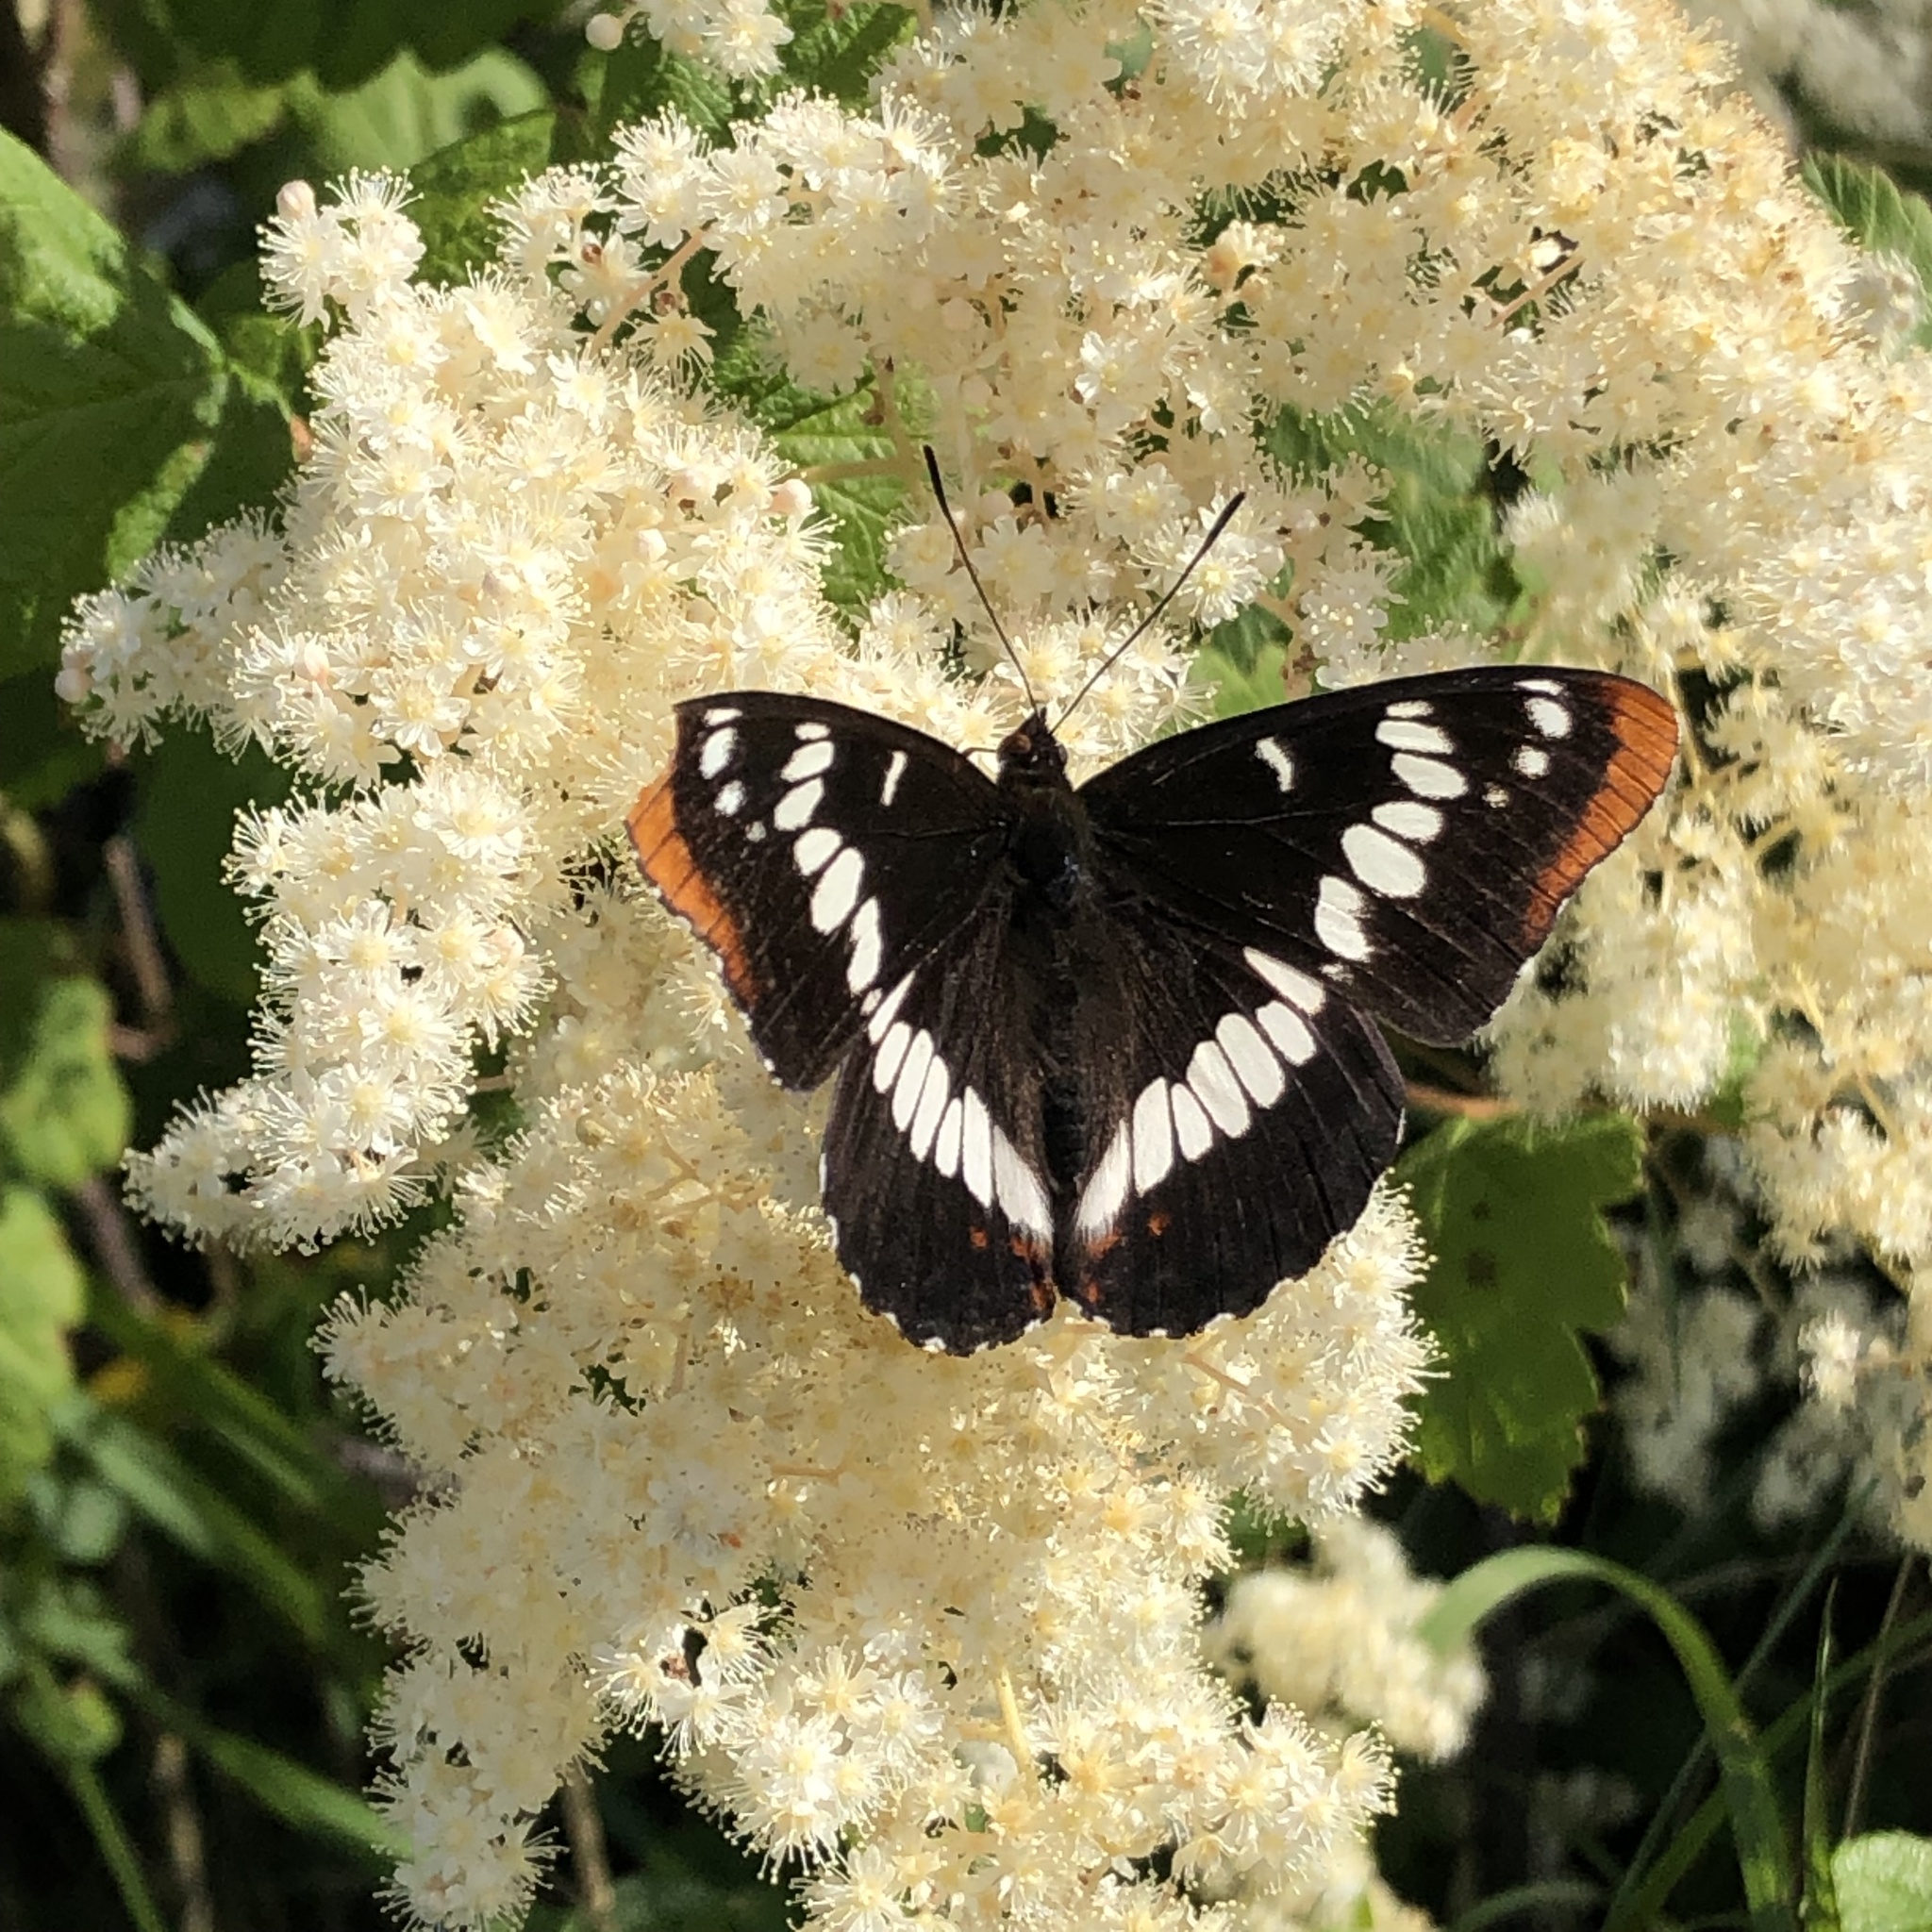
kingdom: Animalia
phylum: Arthropoda
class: Insecta
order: Lepidoptera
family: Nymphalidae
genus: Limenitis
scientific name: Limenitis lorquini
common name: Lorquin's admiral
